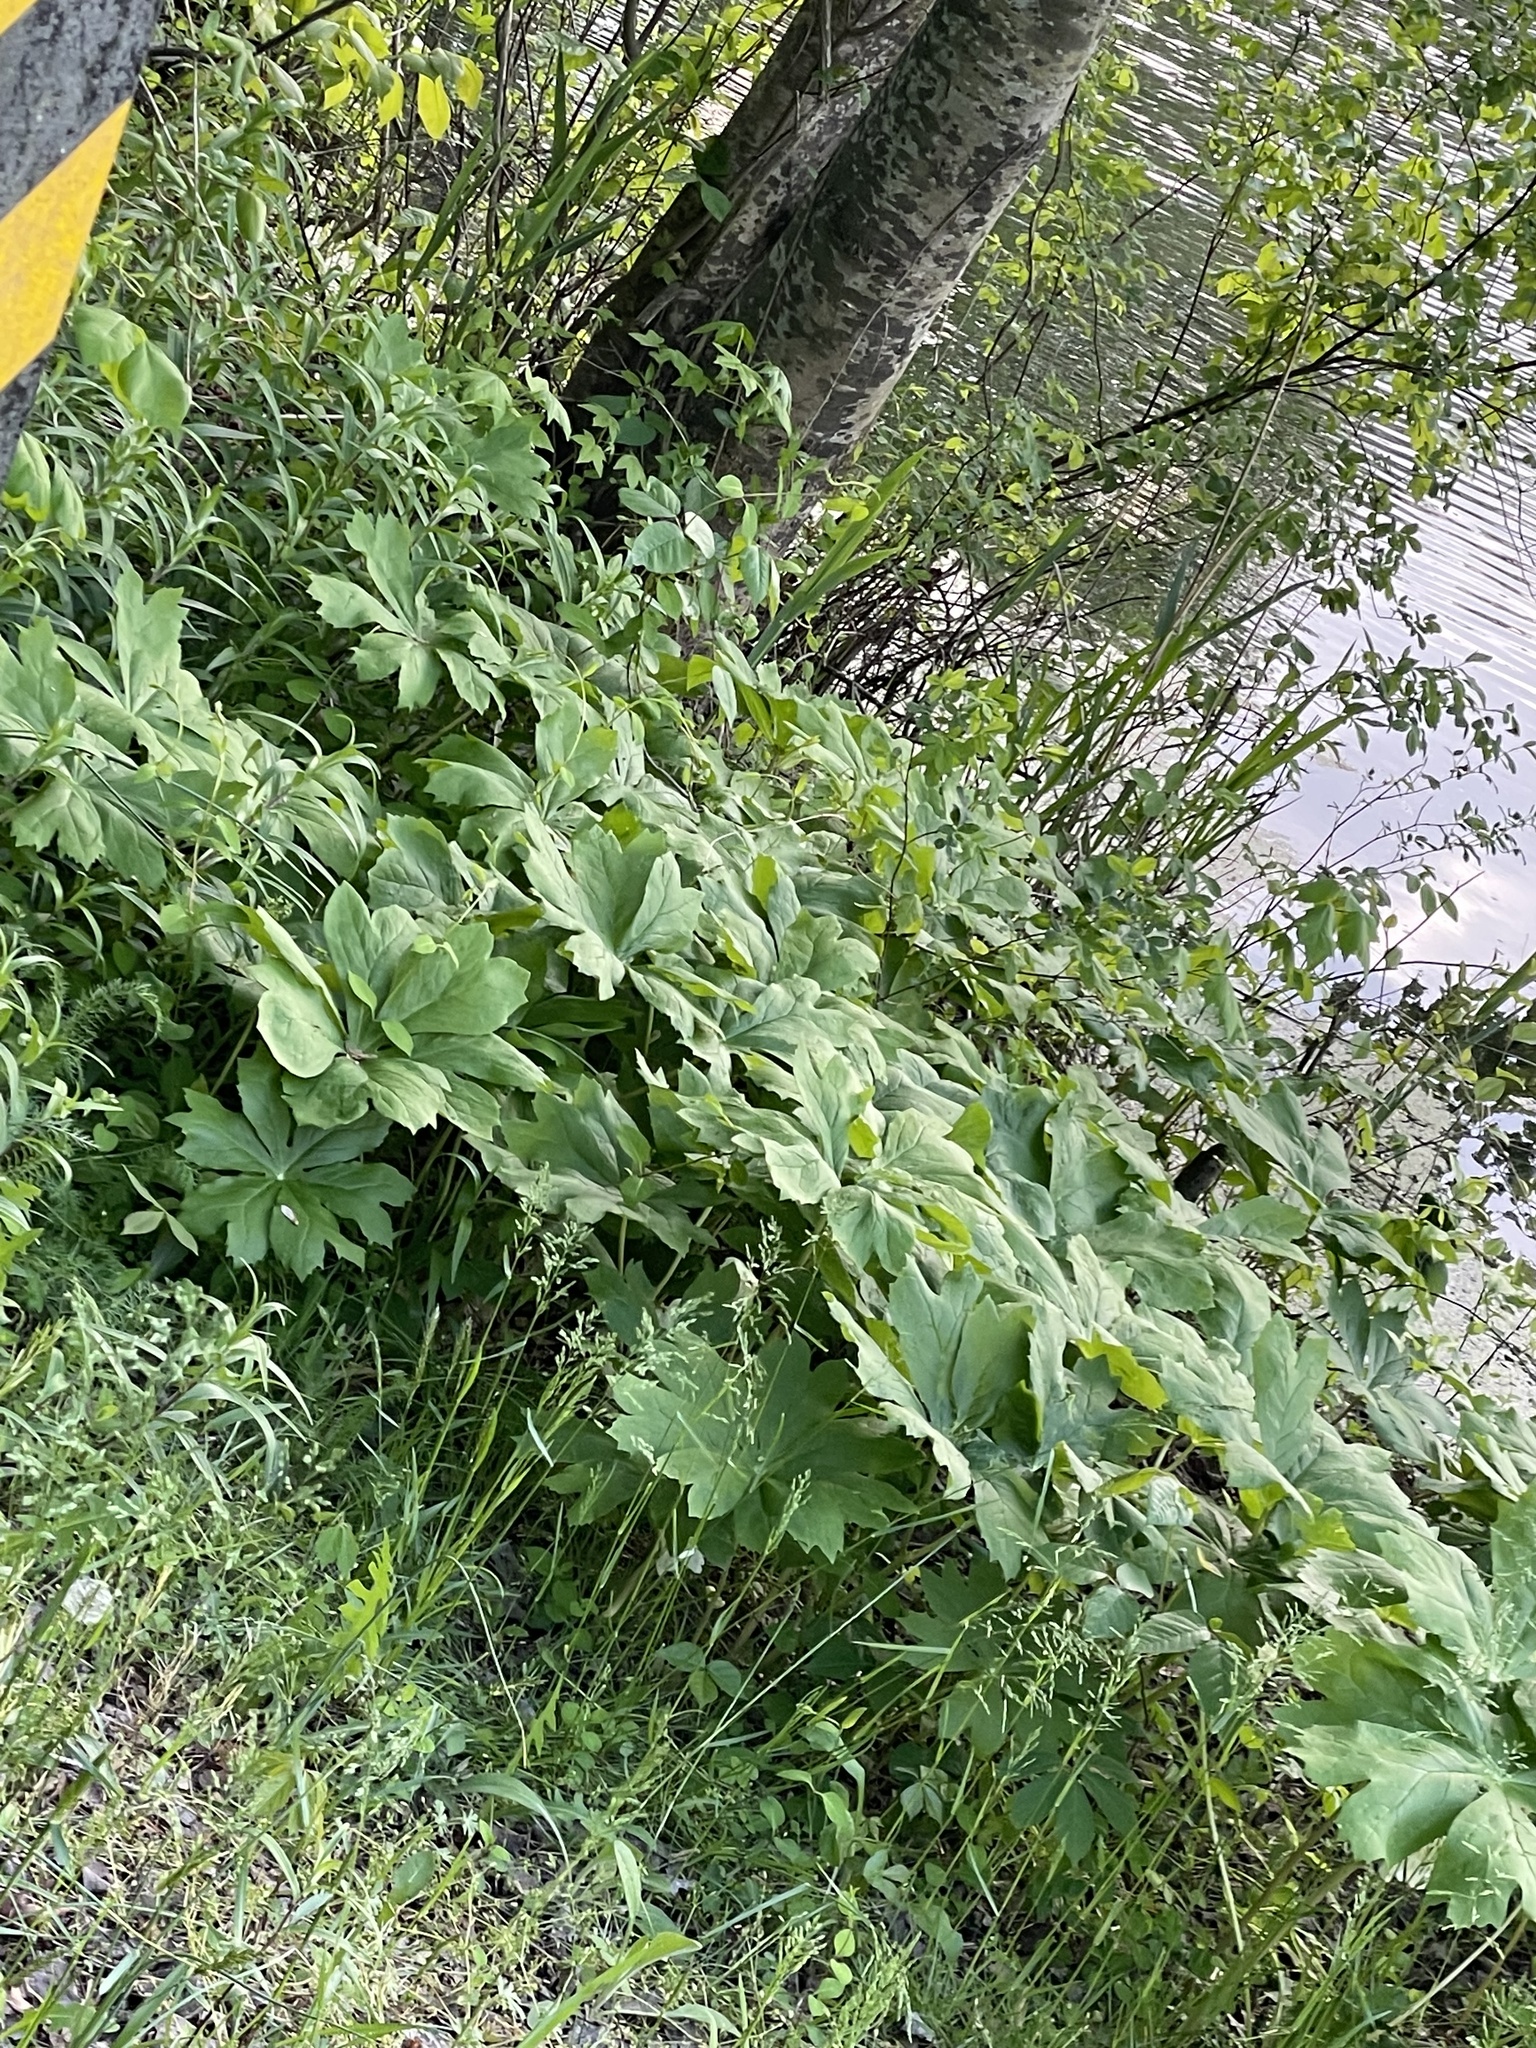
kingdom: Plantae
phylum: Tracheophyta
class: Magnoliopsida
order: Ranunculales
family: Berberidaceae
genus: Podophyllum
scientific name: Podophyllum peltatum
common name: Wild mandrake
